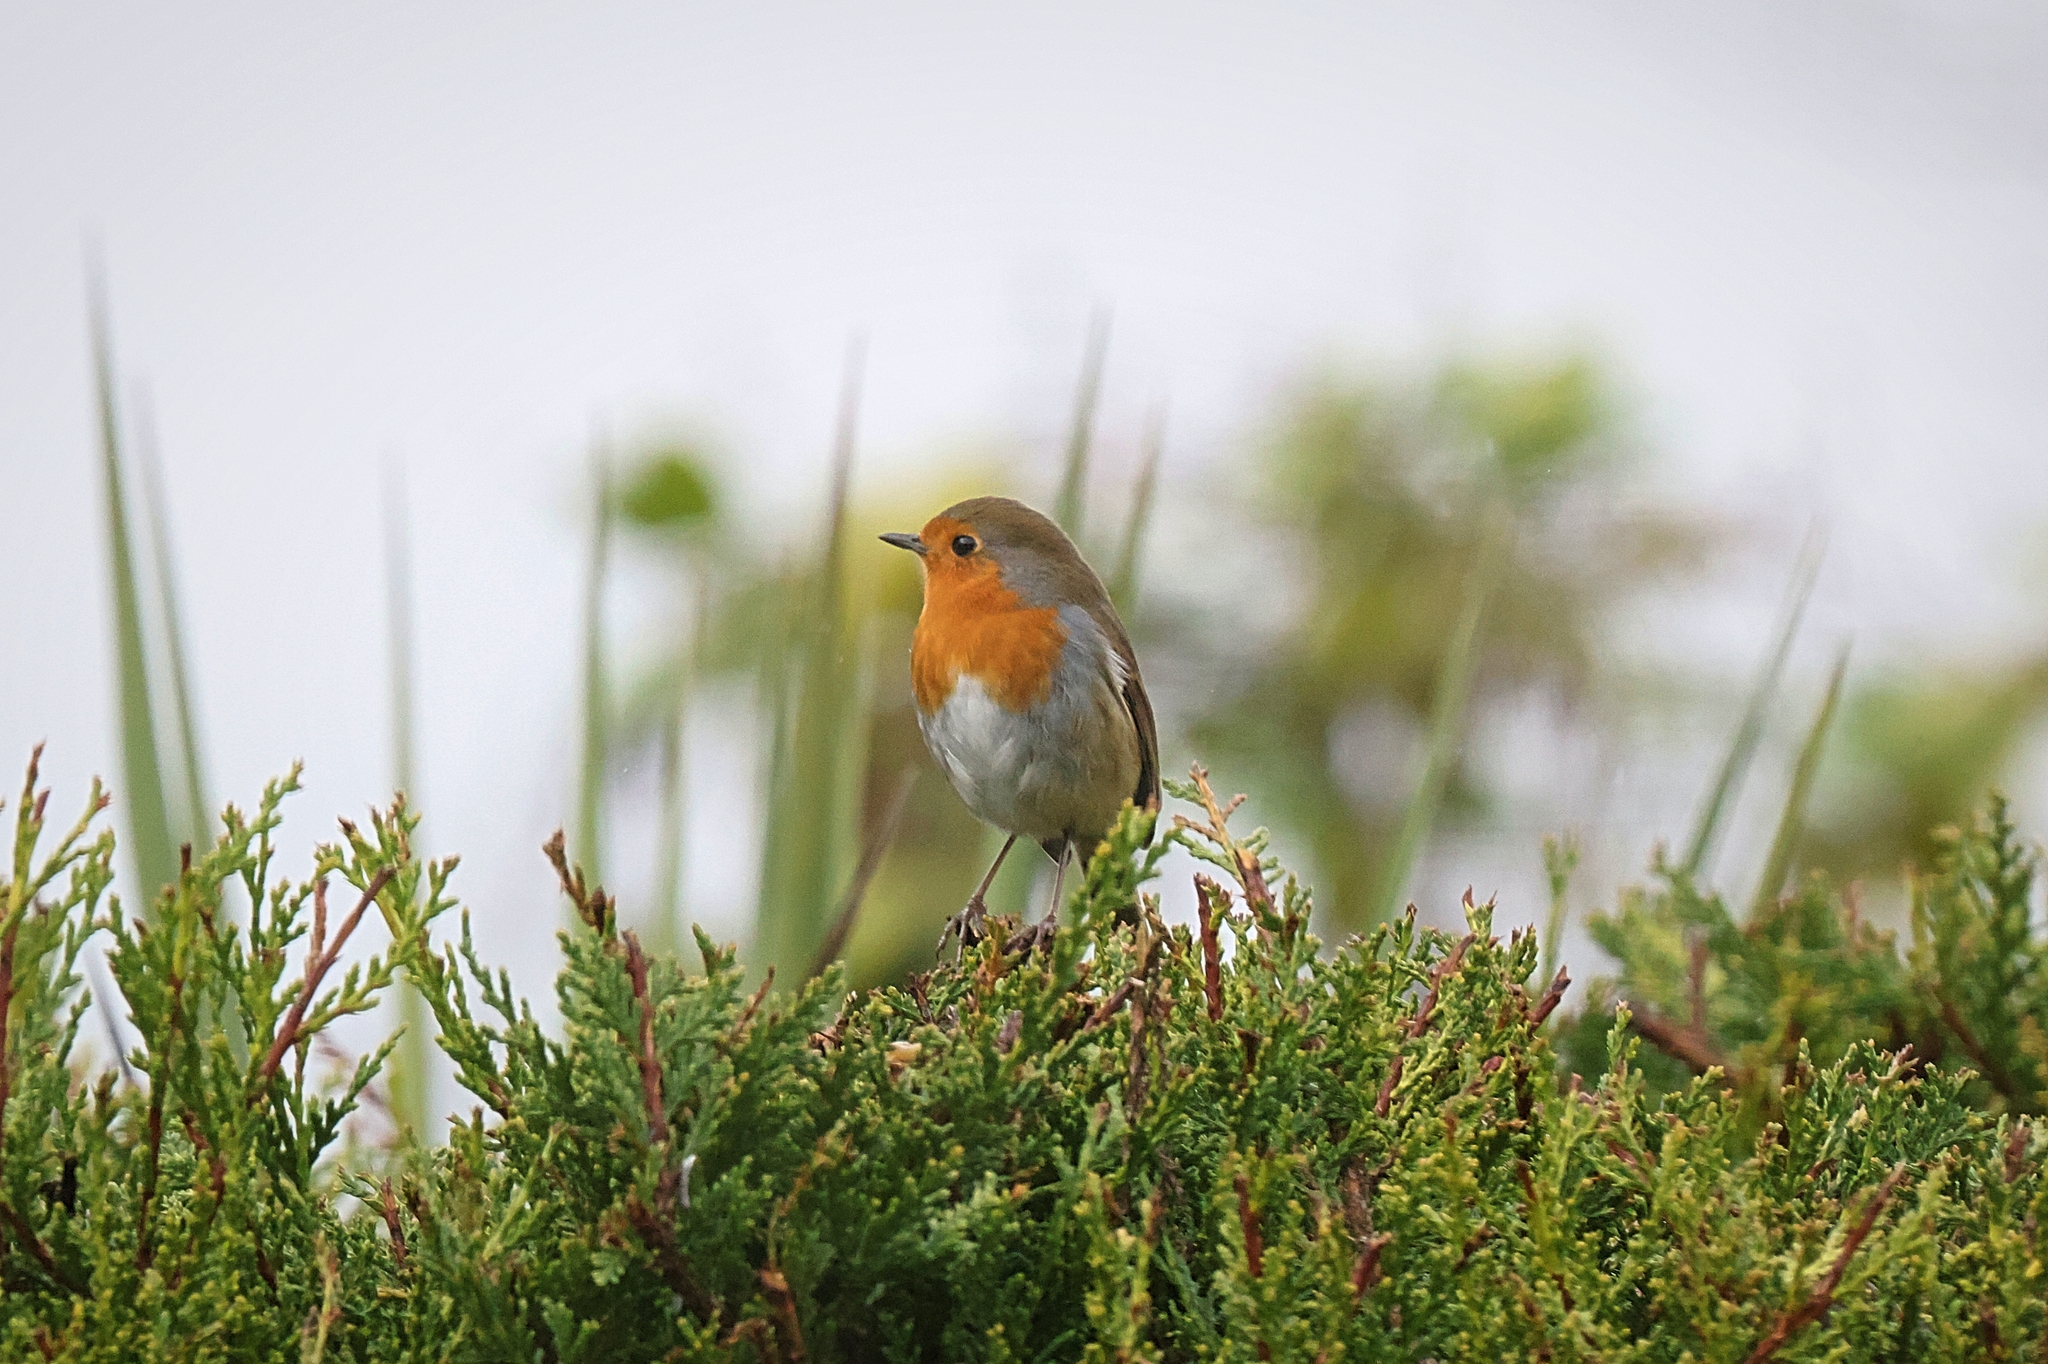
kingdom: Animalia
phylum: Chordata
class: Aves
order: Passeriformes
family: Muscicapidae
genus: Erithacus
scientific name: Erithacus rubecula
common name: European robin
